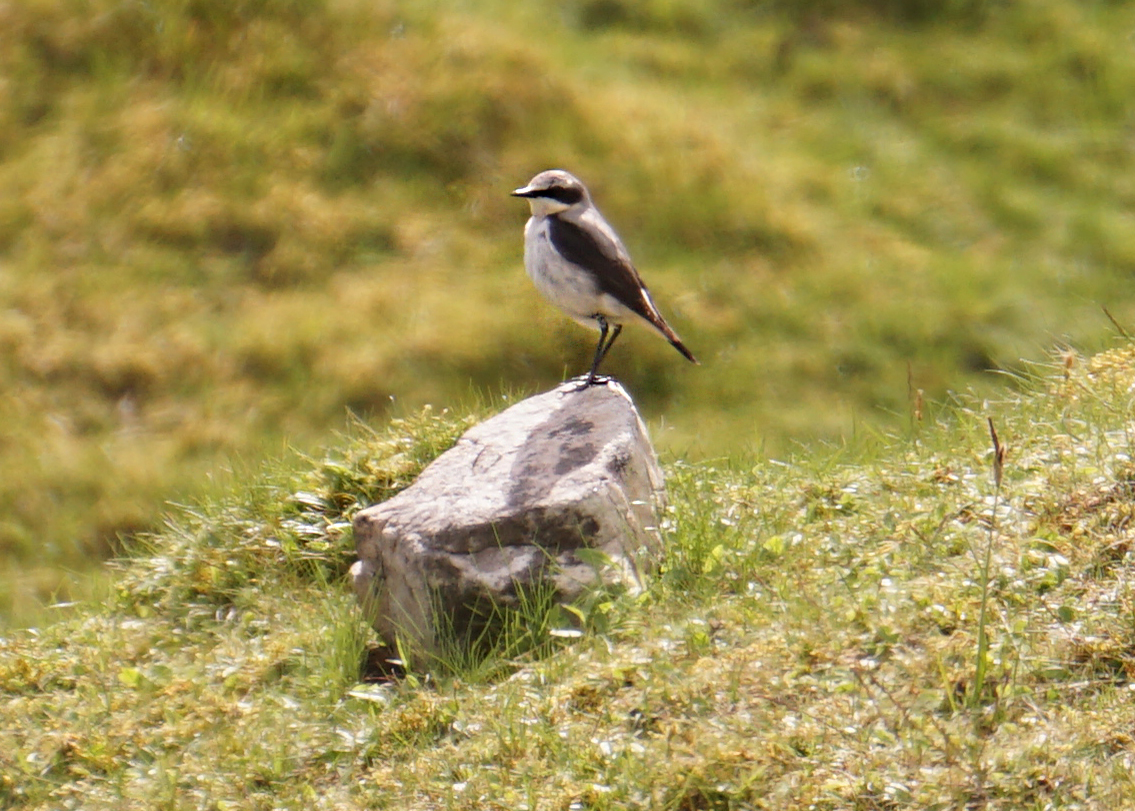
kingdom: Animalia
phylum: Chordata
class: Aves
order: Passeriformes
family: Muscicapidae
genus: Oenanthe
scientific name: Oenanthe oenanthe
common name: Northern wheatear
